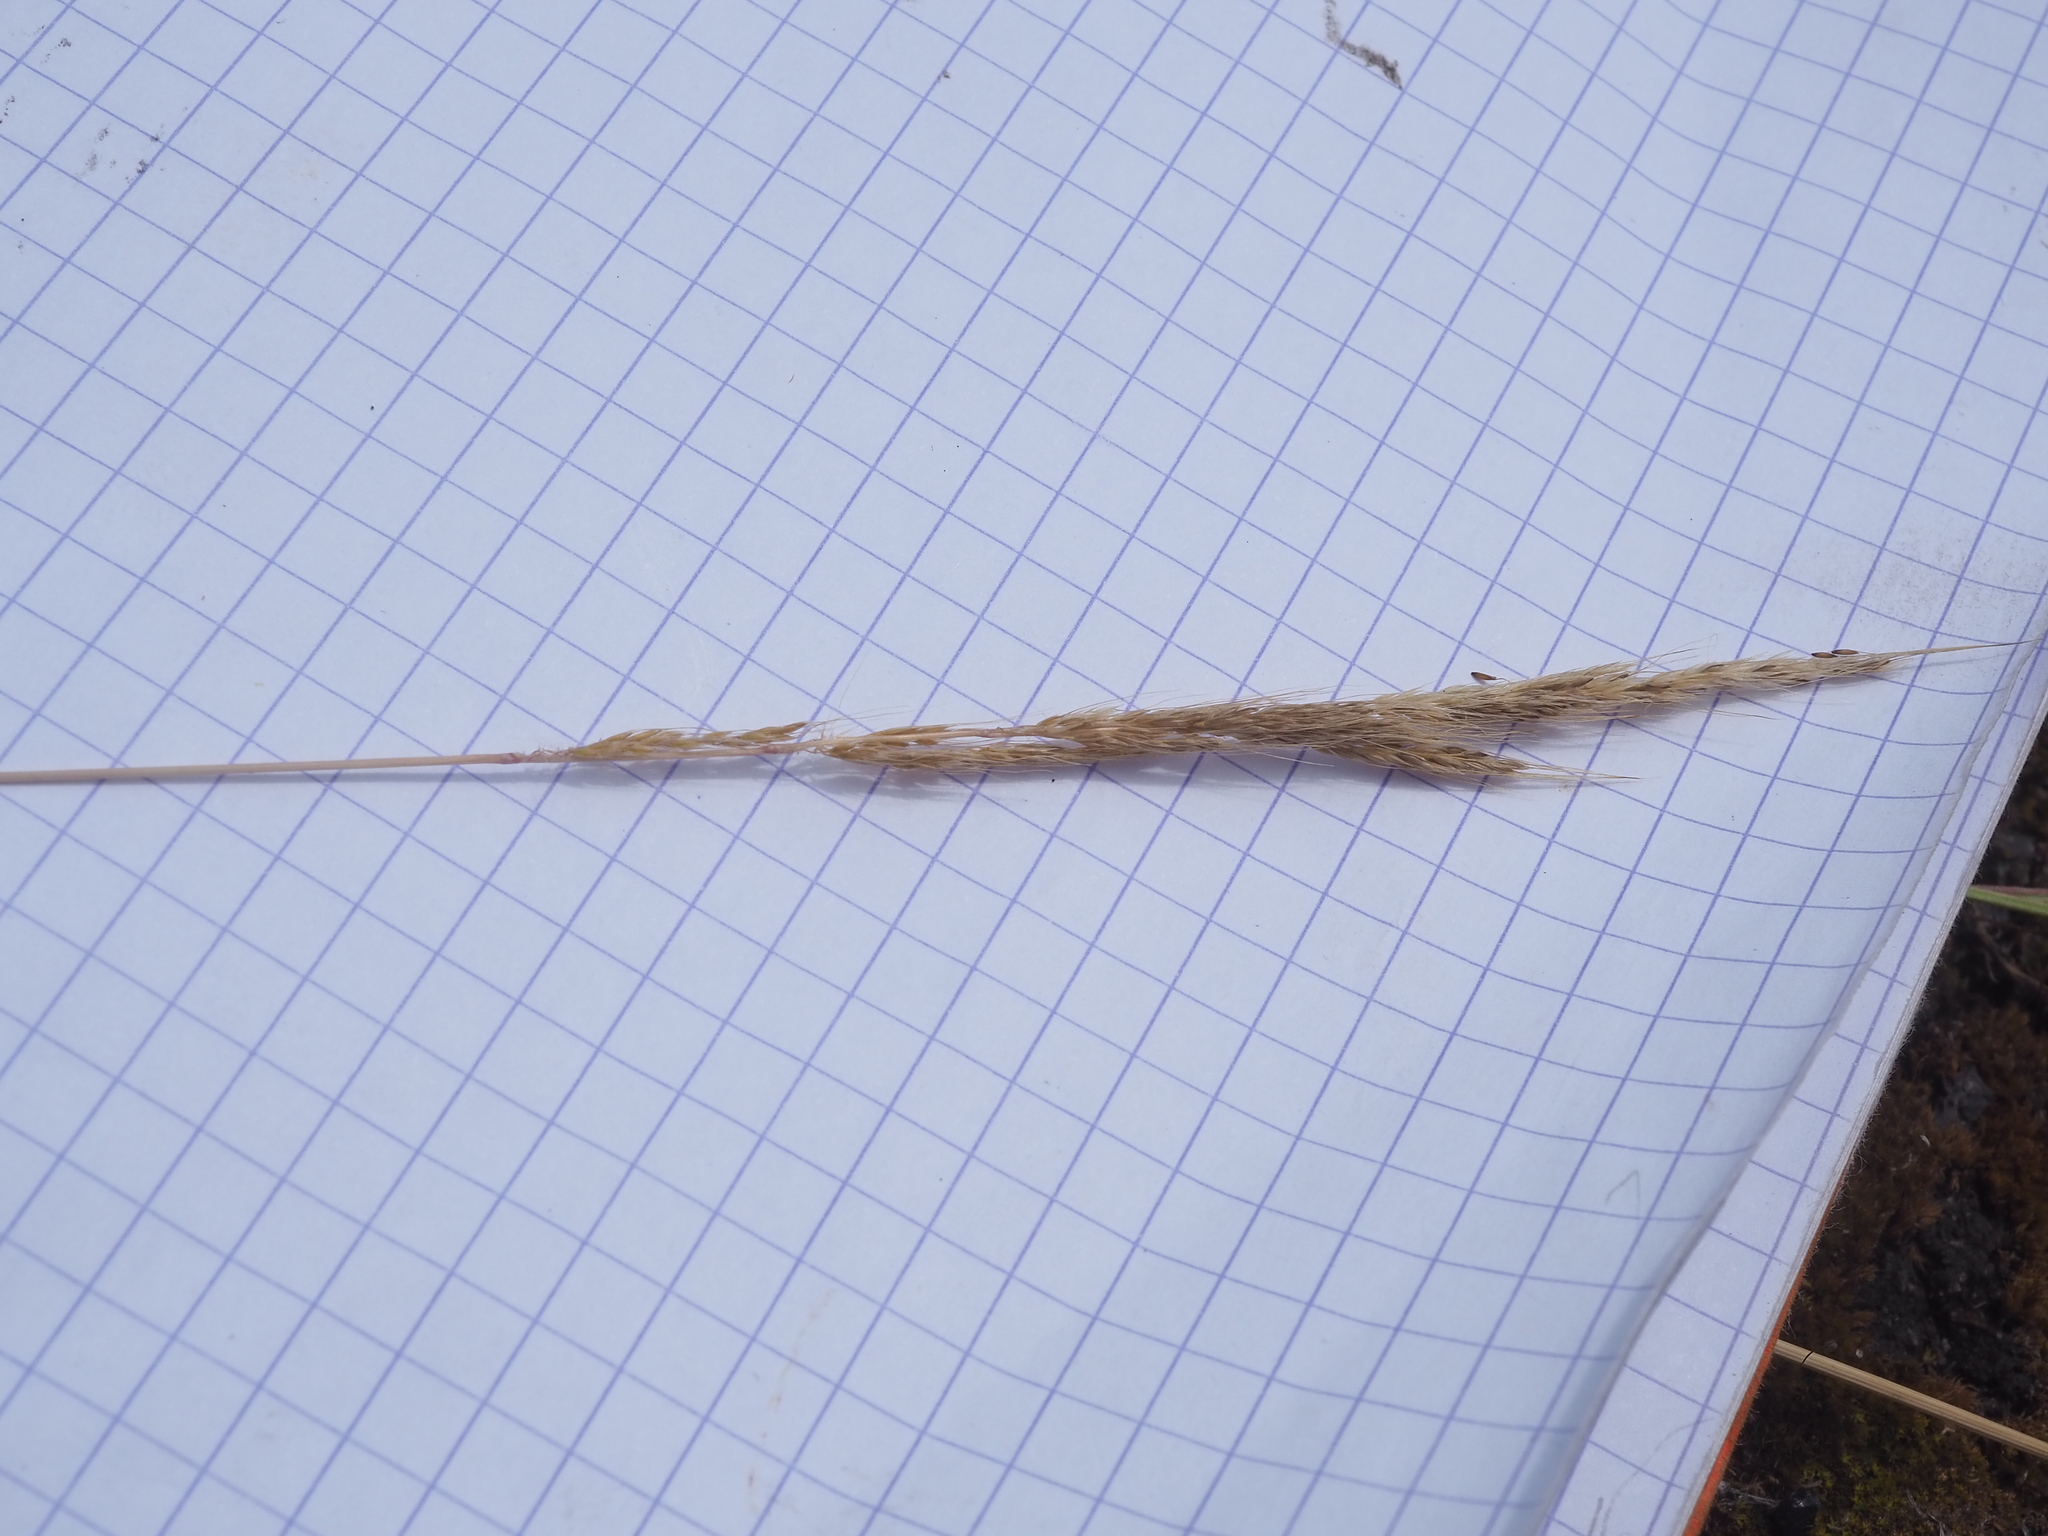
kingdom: Plantae
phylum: Tracheophyta
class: Liliopsida
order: Poales
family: Poaceae
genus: Apera
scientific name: Apera interrupta
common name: Dense silky-bent
